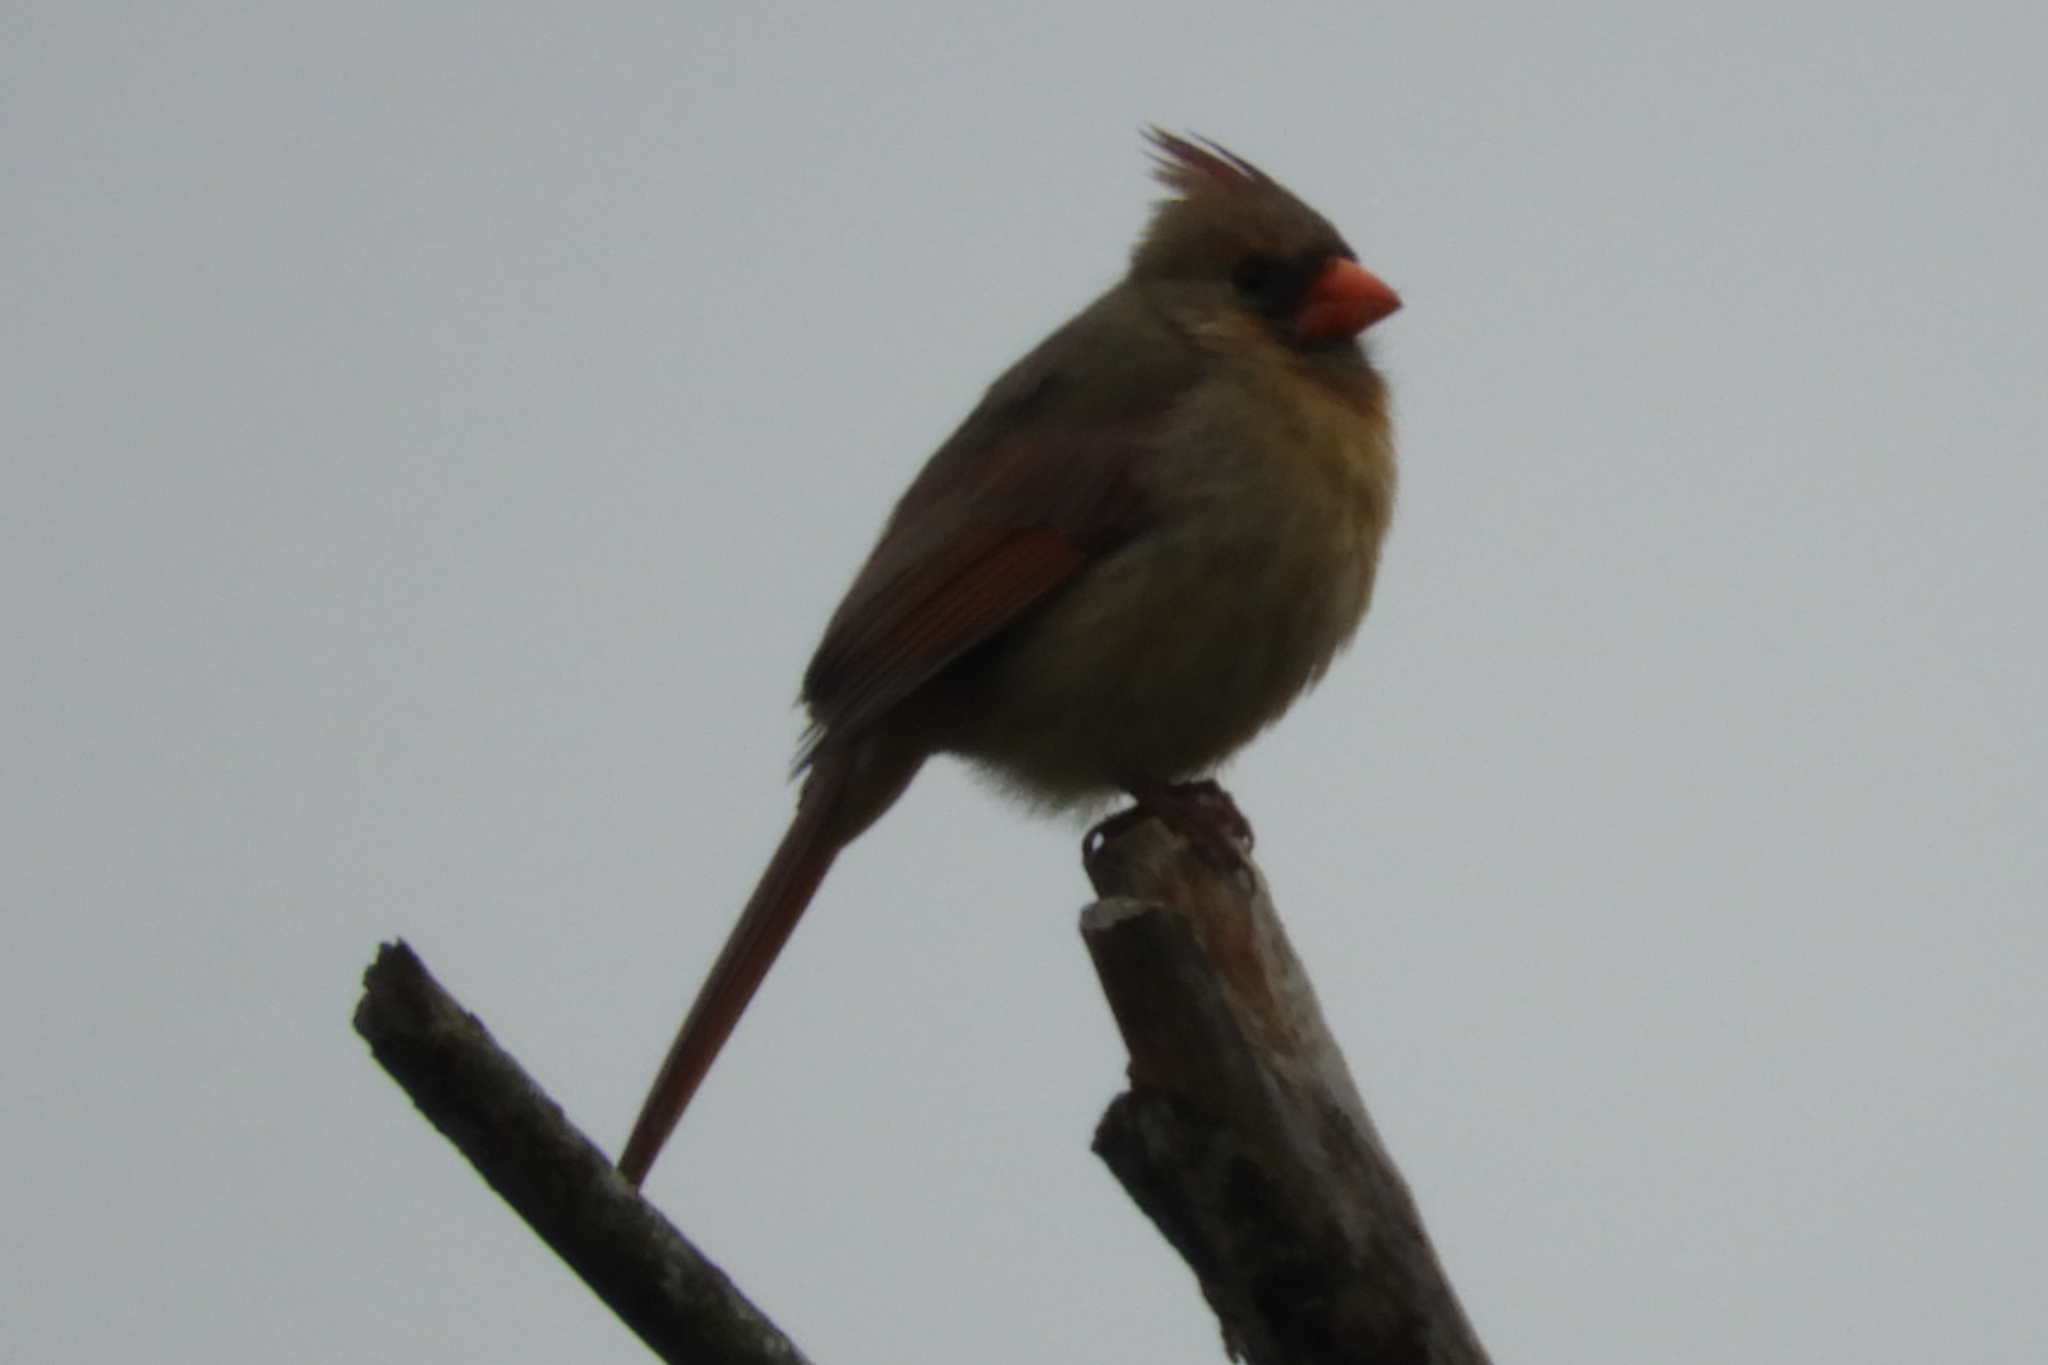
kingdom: Animalia
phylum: Chordata
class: Aves
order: Passeriformes
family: Cardinalidae
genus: Cardinalis
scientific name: Cardinalis cardinalis
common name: Northern cardinal
